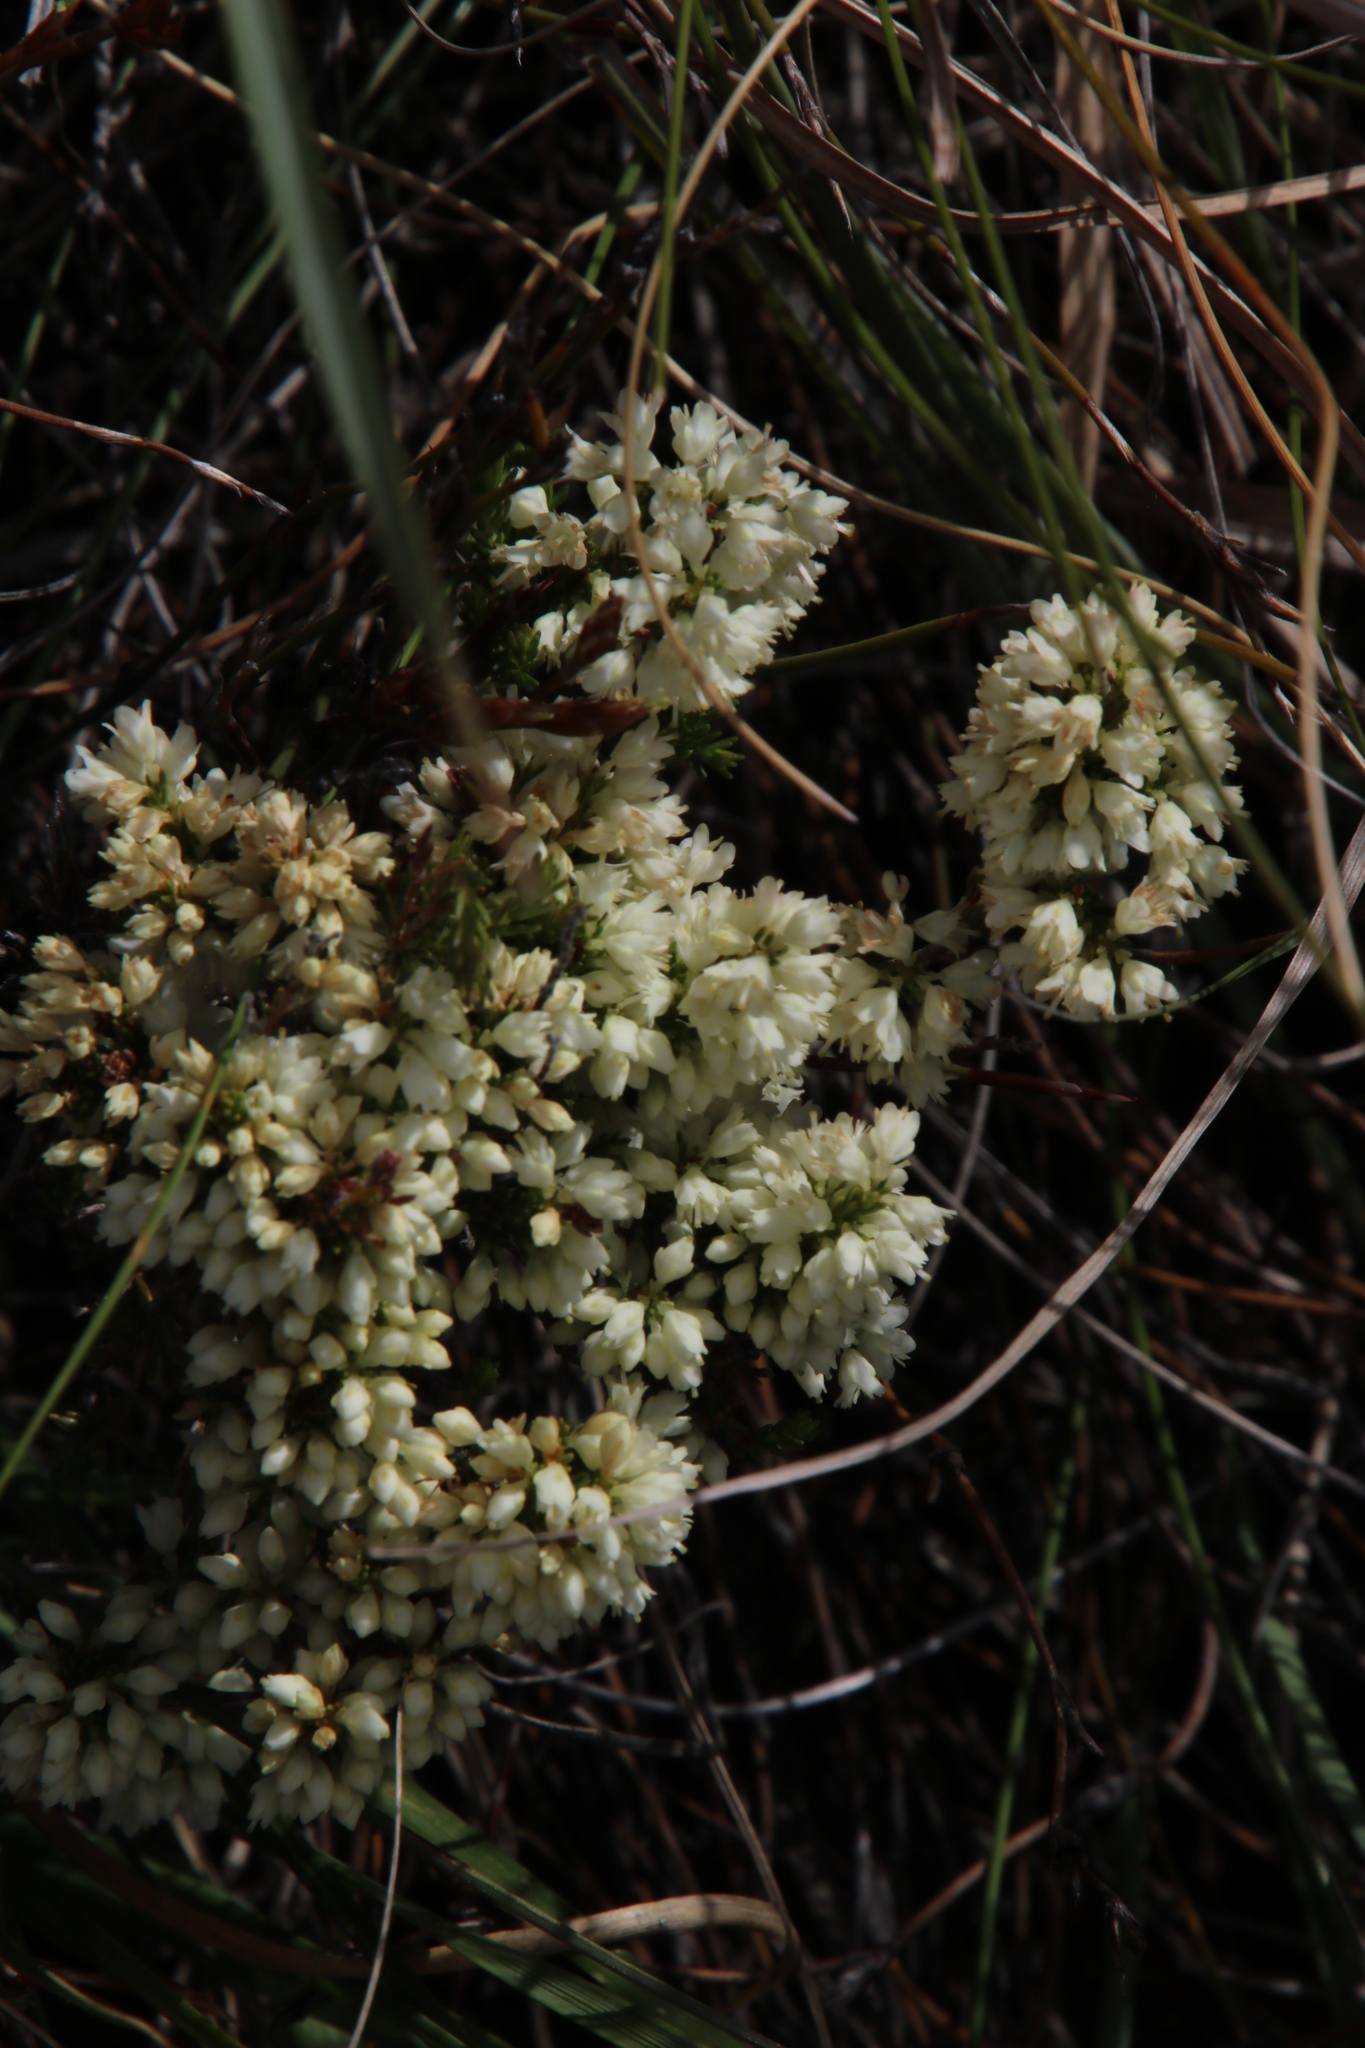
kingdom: Plantae
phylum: Tracheophyta
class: Magnoliopsida
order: Ericales
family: Ericaceae
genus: Erica
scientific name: Erica leucanthera
